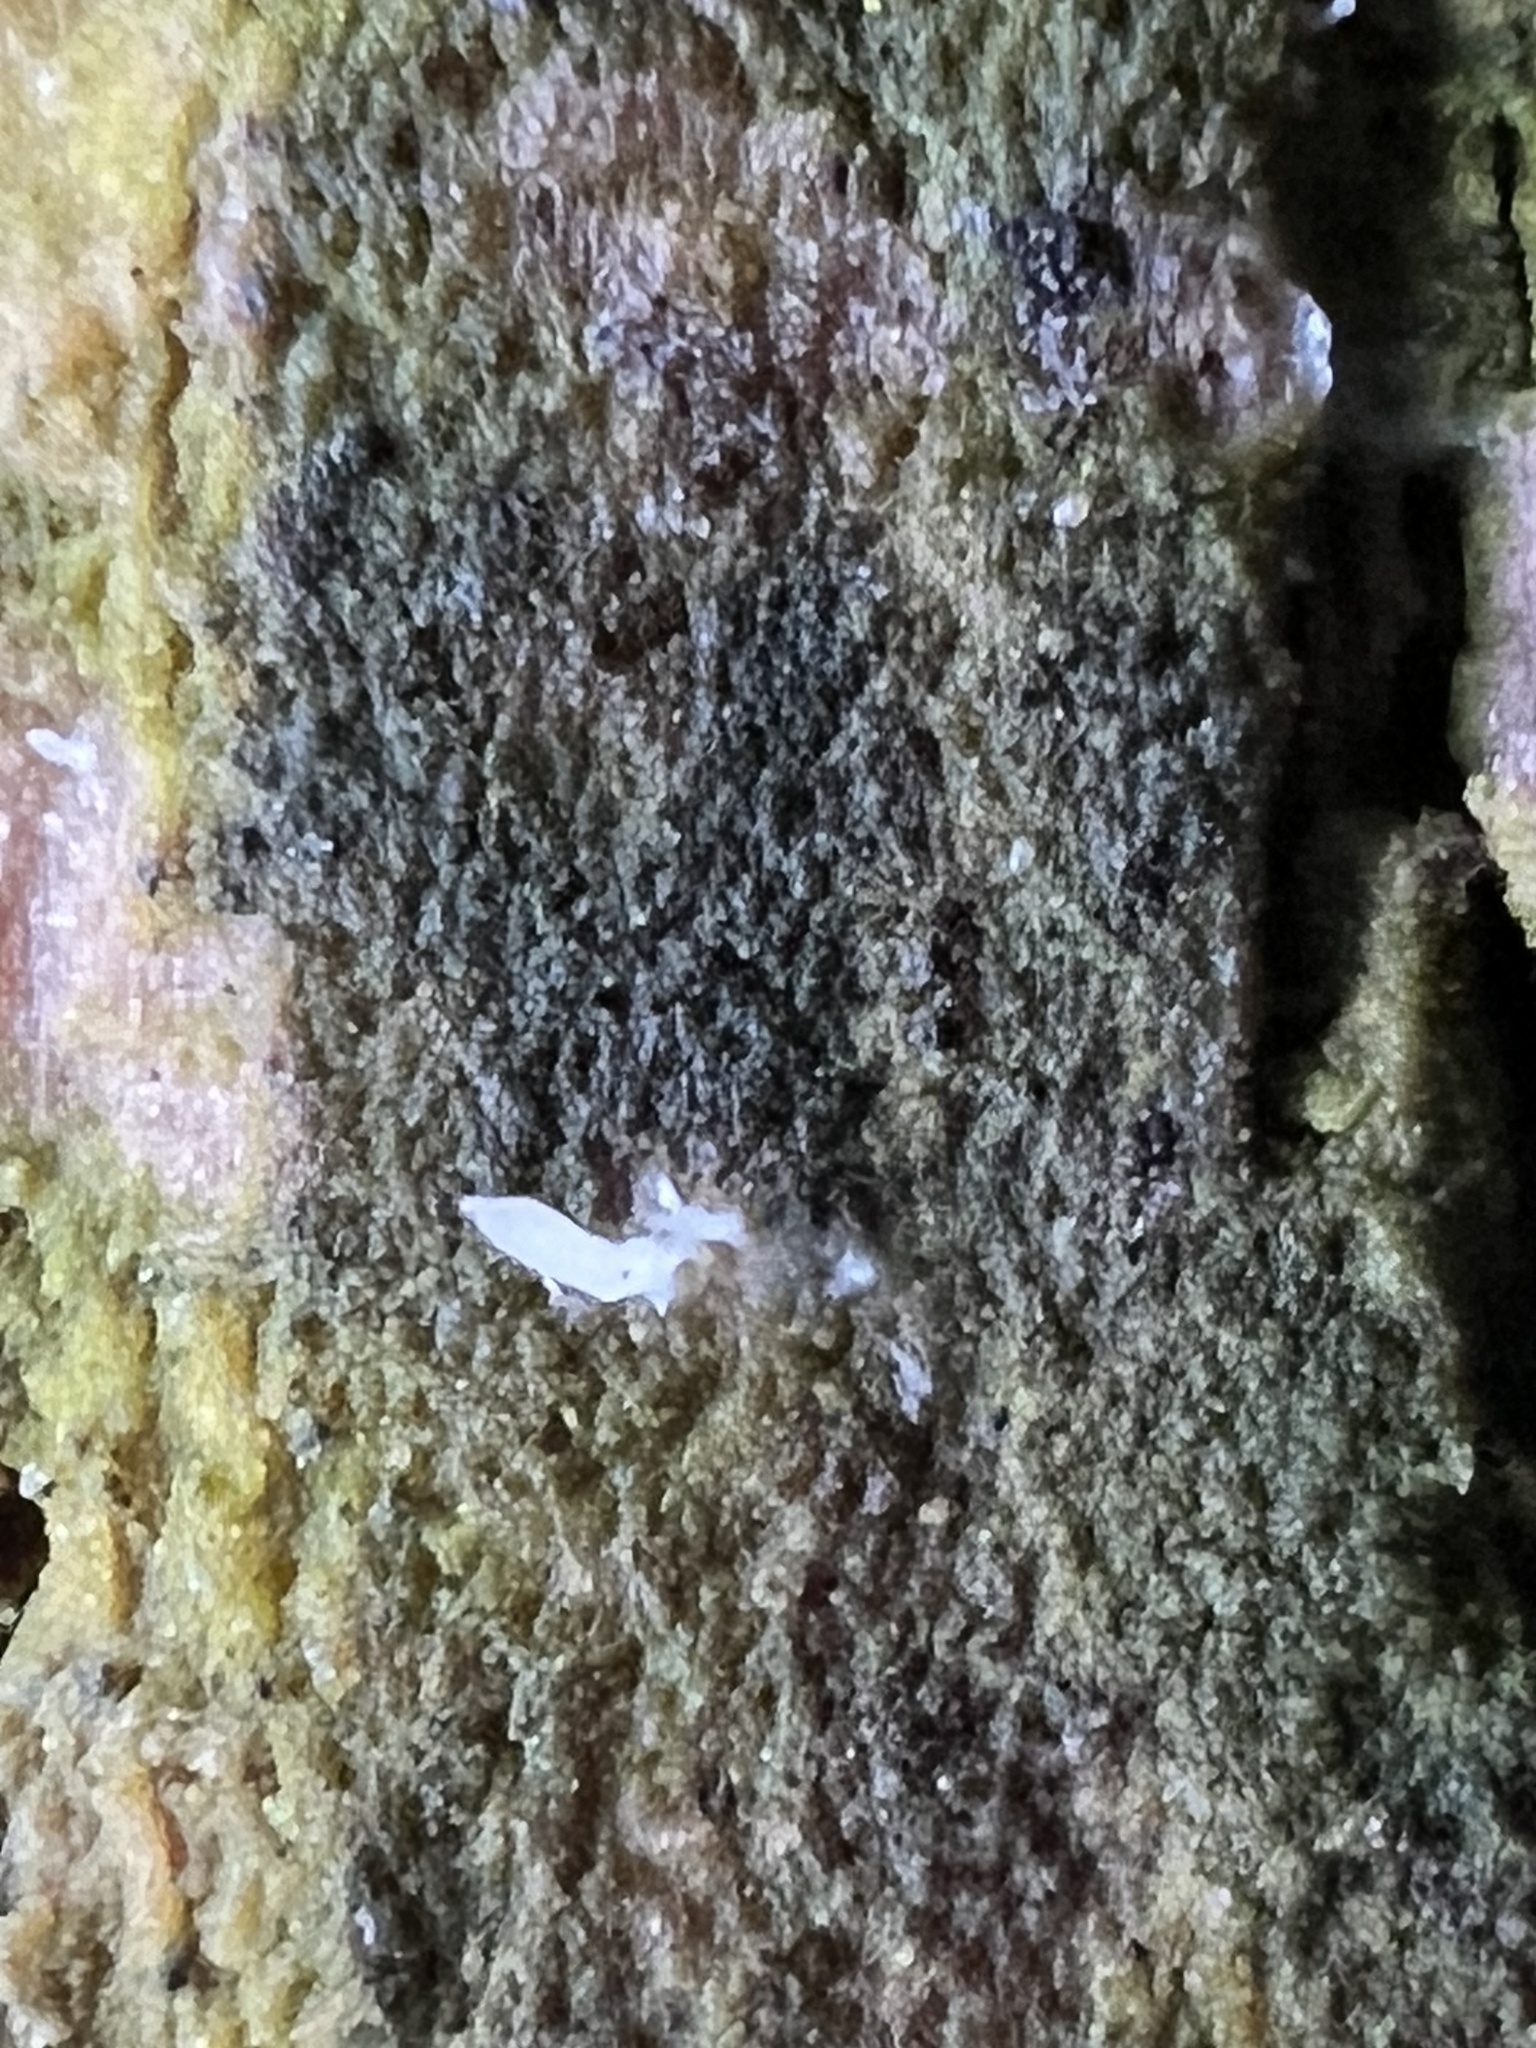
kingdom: Fungi
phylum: Basidiomycota
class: Agaricomycetes
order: Cantharellales
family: Hydnaceae
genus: Multiclavula
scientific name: Multiclavula mucida
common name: White green-algae coral
